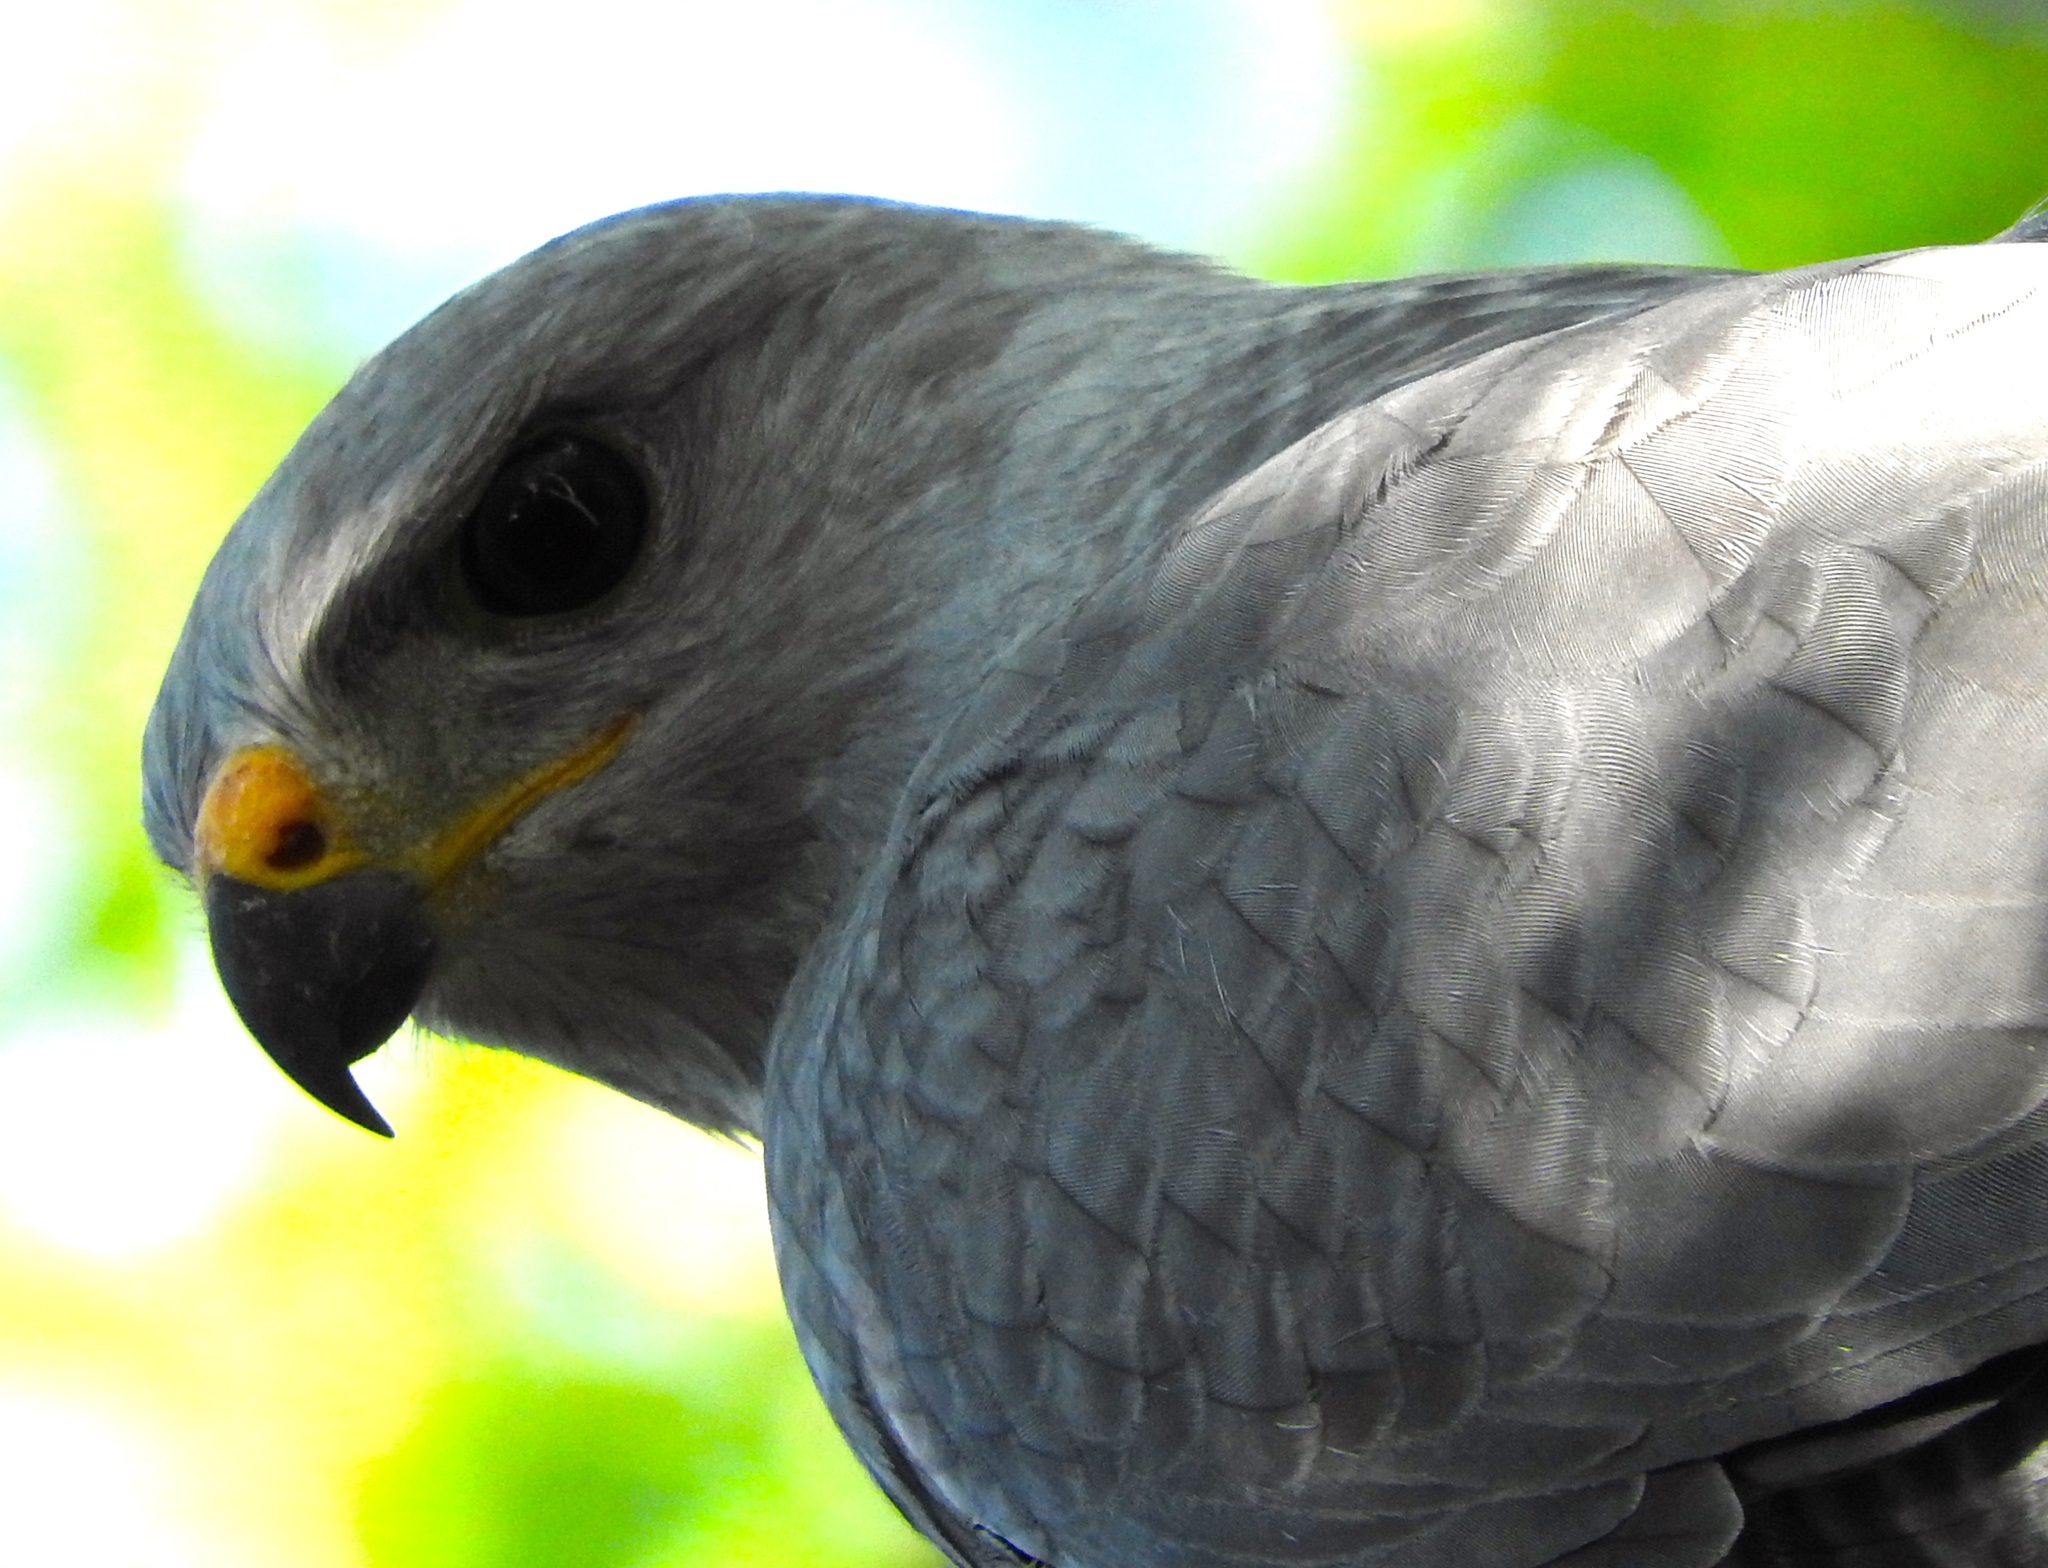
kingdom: Animalia
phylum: Chordata
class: Aves
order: Accipitriformes
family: Accipitridae
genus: Buteo
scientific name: Buteo nitidus
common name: Grey-lined hawk
